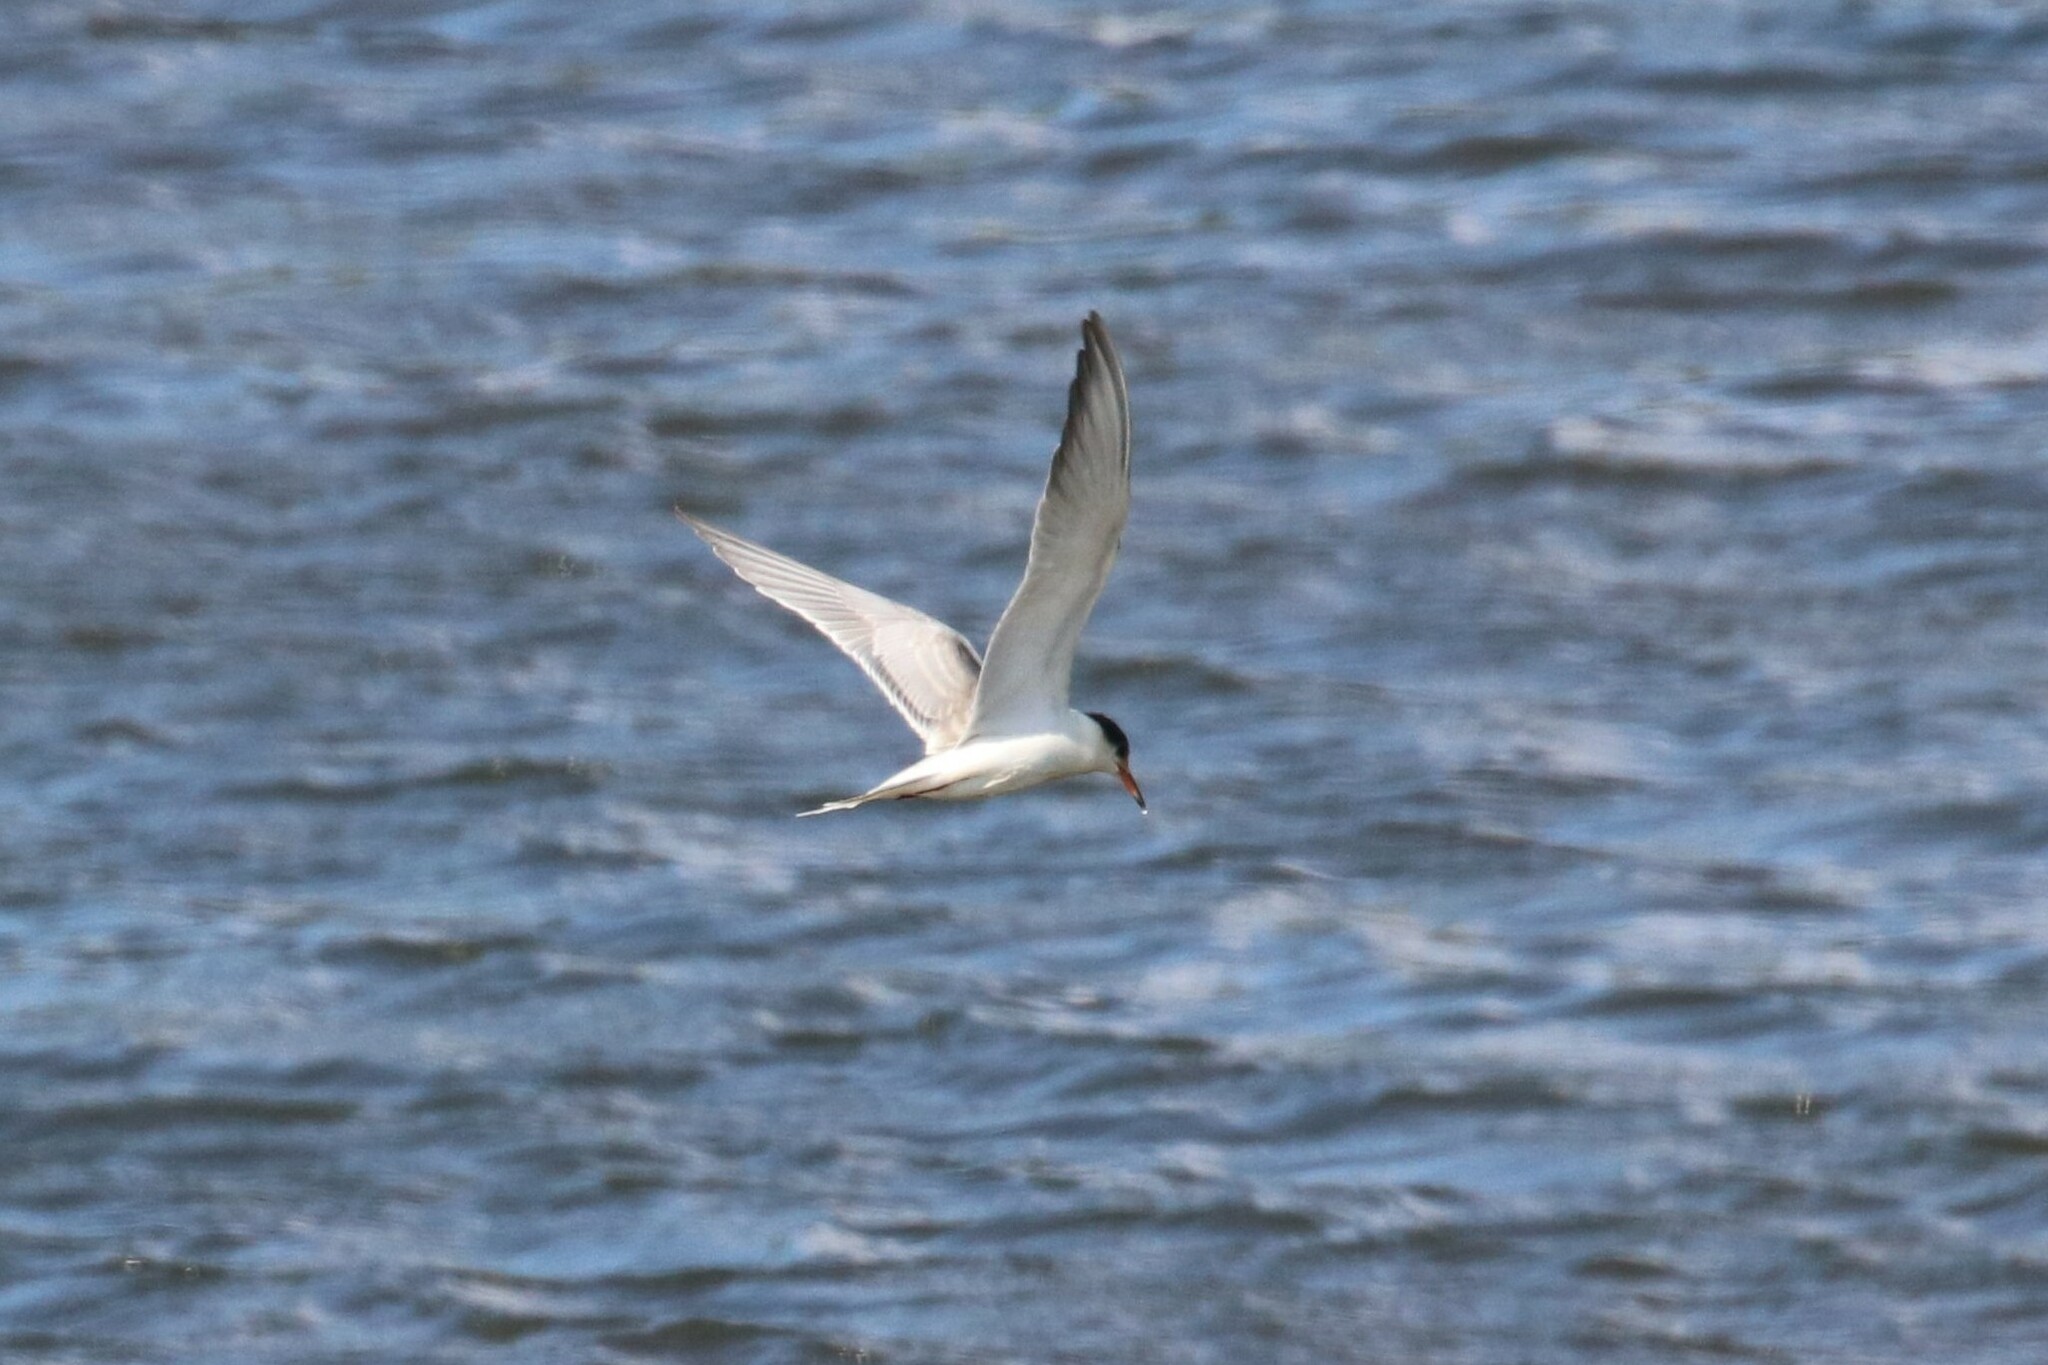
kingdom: Animalia
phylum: Chordata
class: Aves
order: Charadriiformes
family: Laridae
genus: Sterna
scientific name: Sterna hirundo
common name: Common tern
